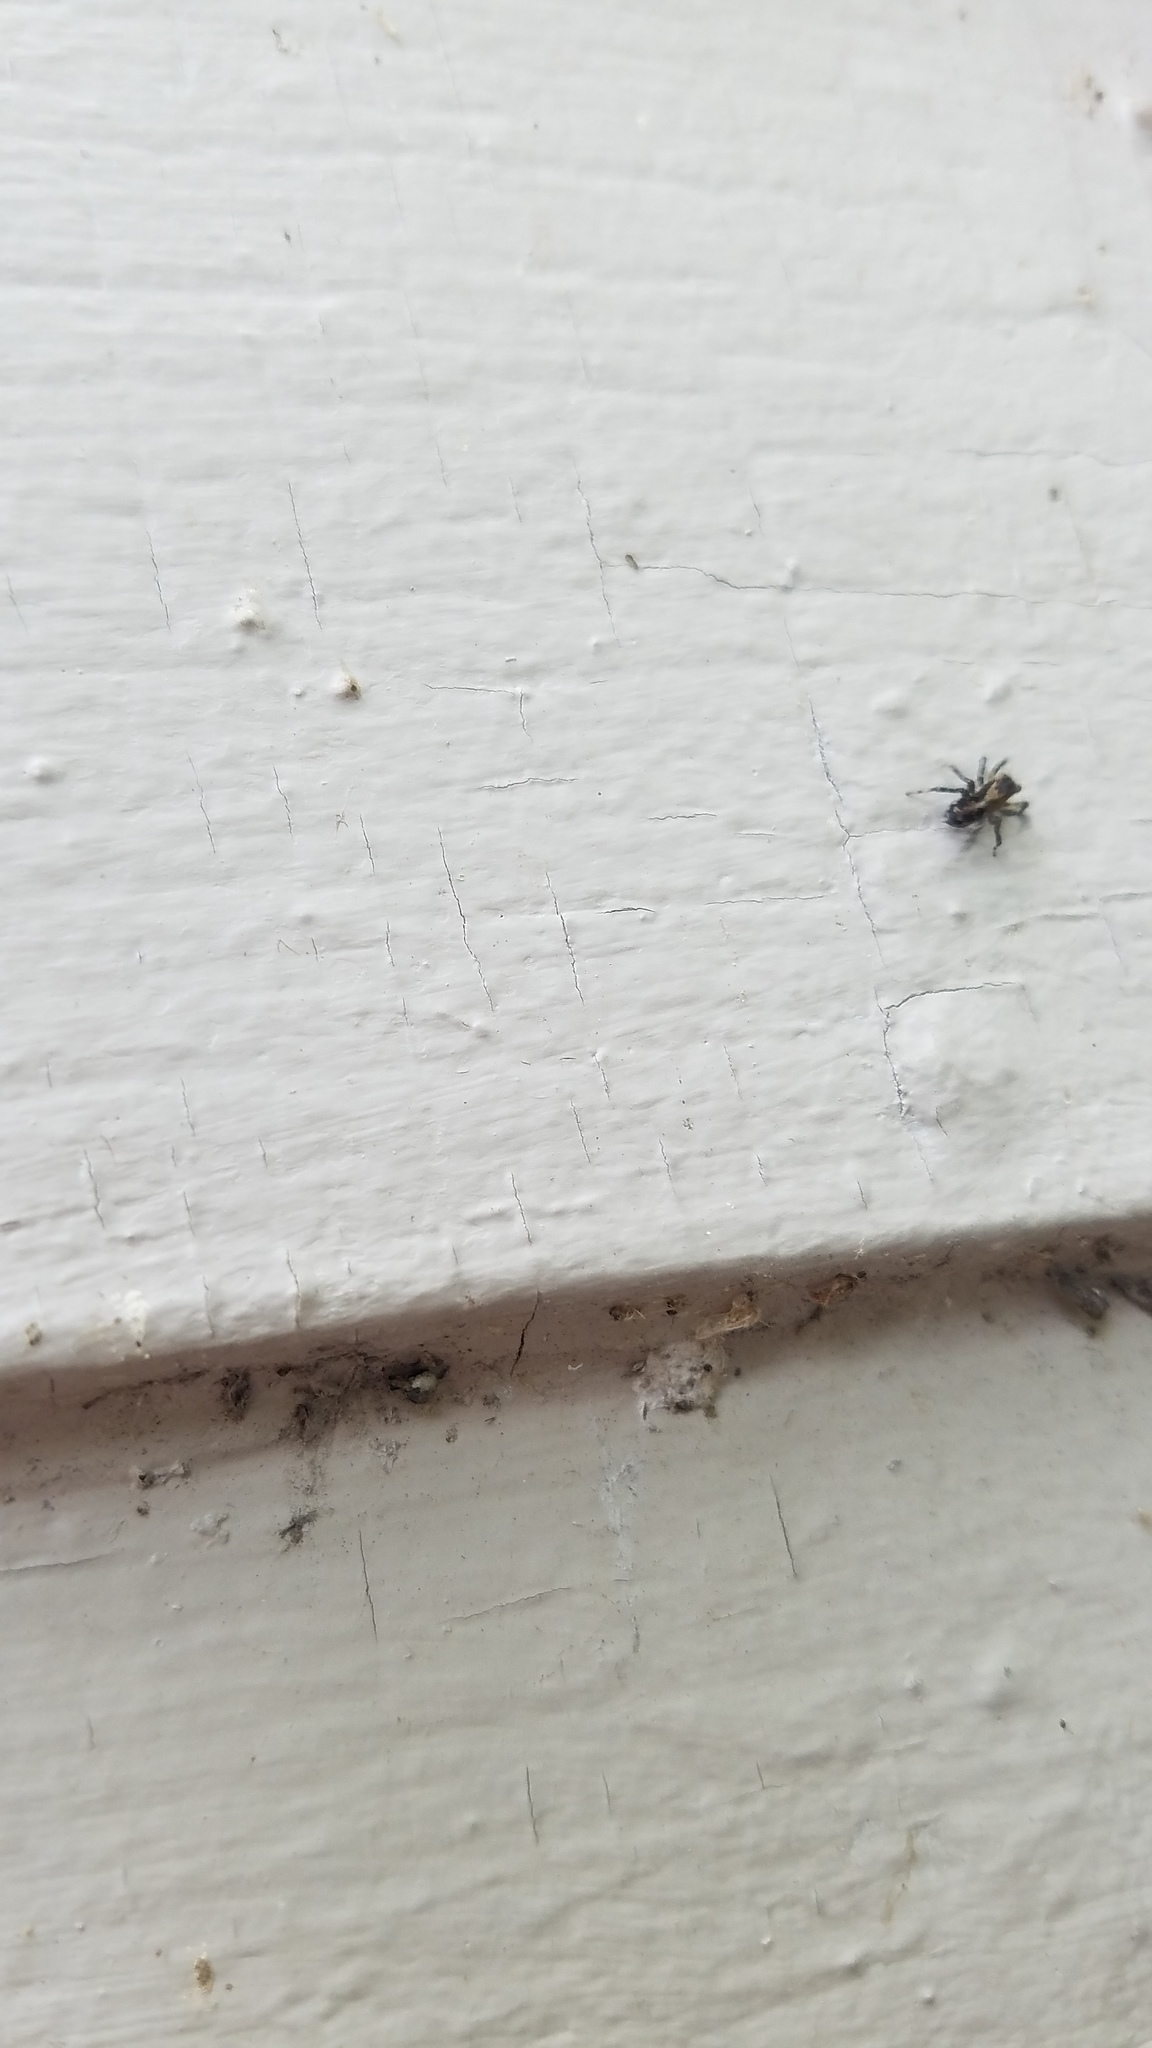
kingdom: Animalia
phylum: Arthropoda
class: Arachnida
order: Araneae
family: Salticidae
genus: Naphrys
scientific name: Naphrys pulex
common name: Flea jumping spider
